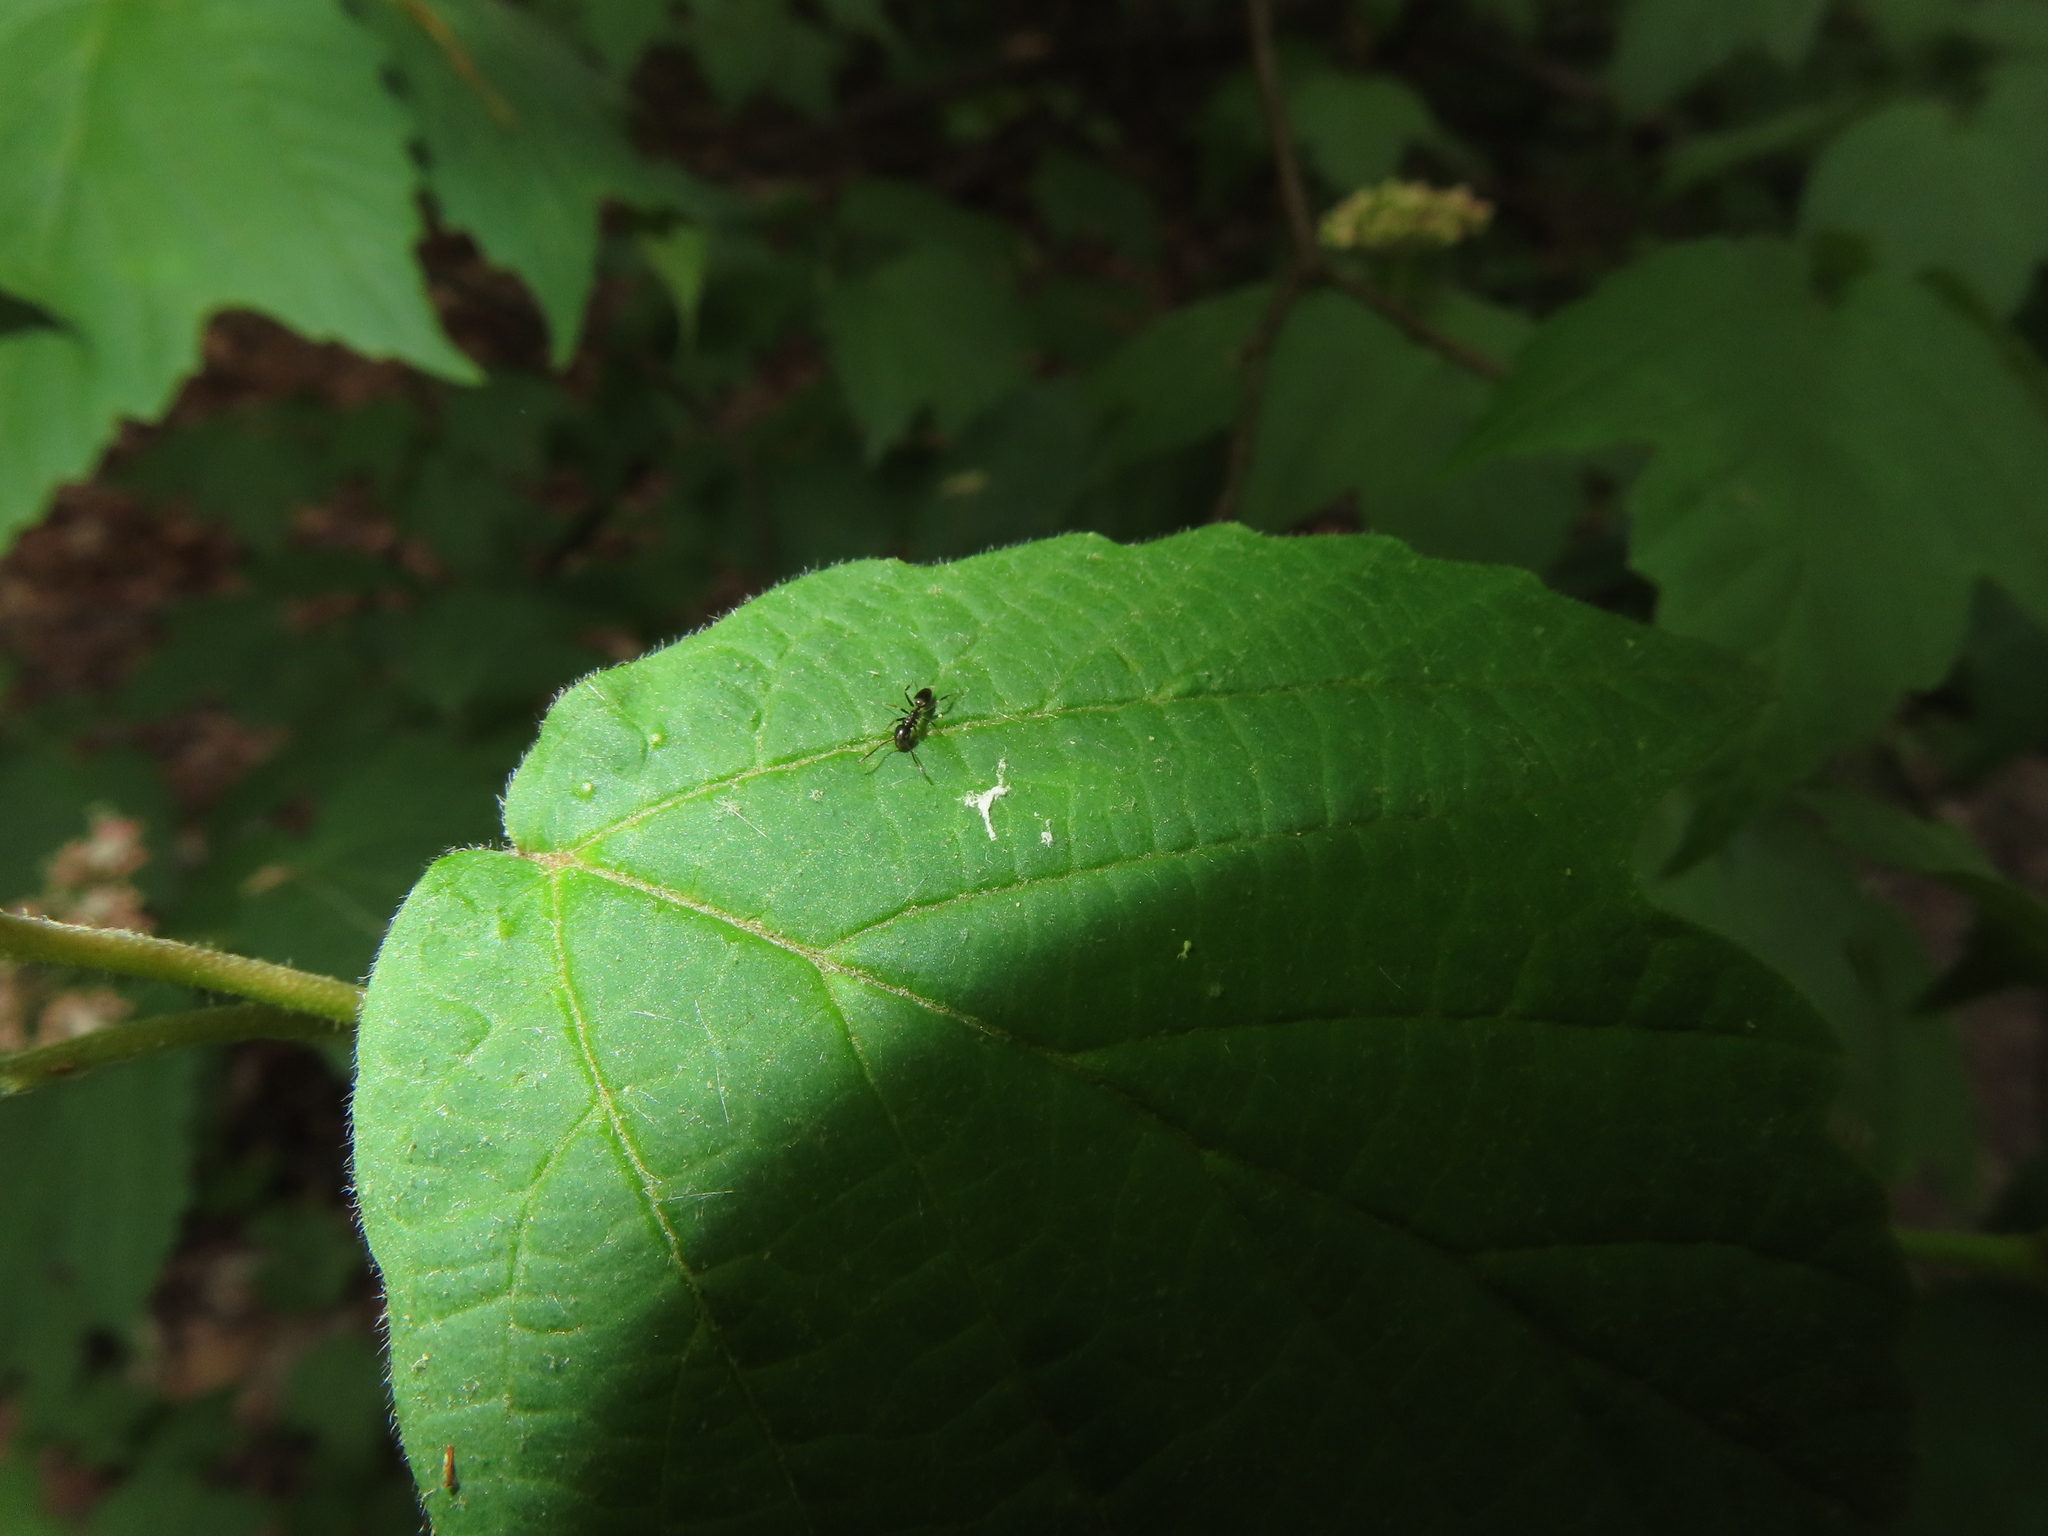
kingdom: Animalia
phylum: Arthropoda
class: Insecta
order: Hymenoptera
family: Formicidae
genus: Tapinoma
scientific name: Tapinoma sessile
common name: Odorous house ant
